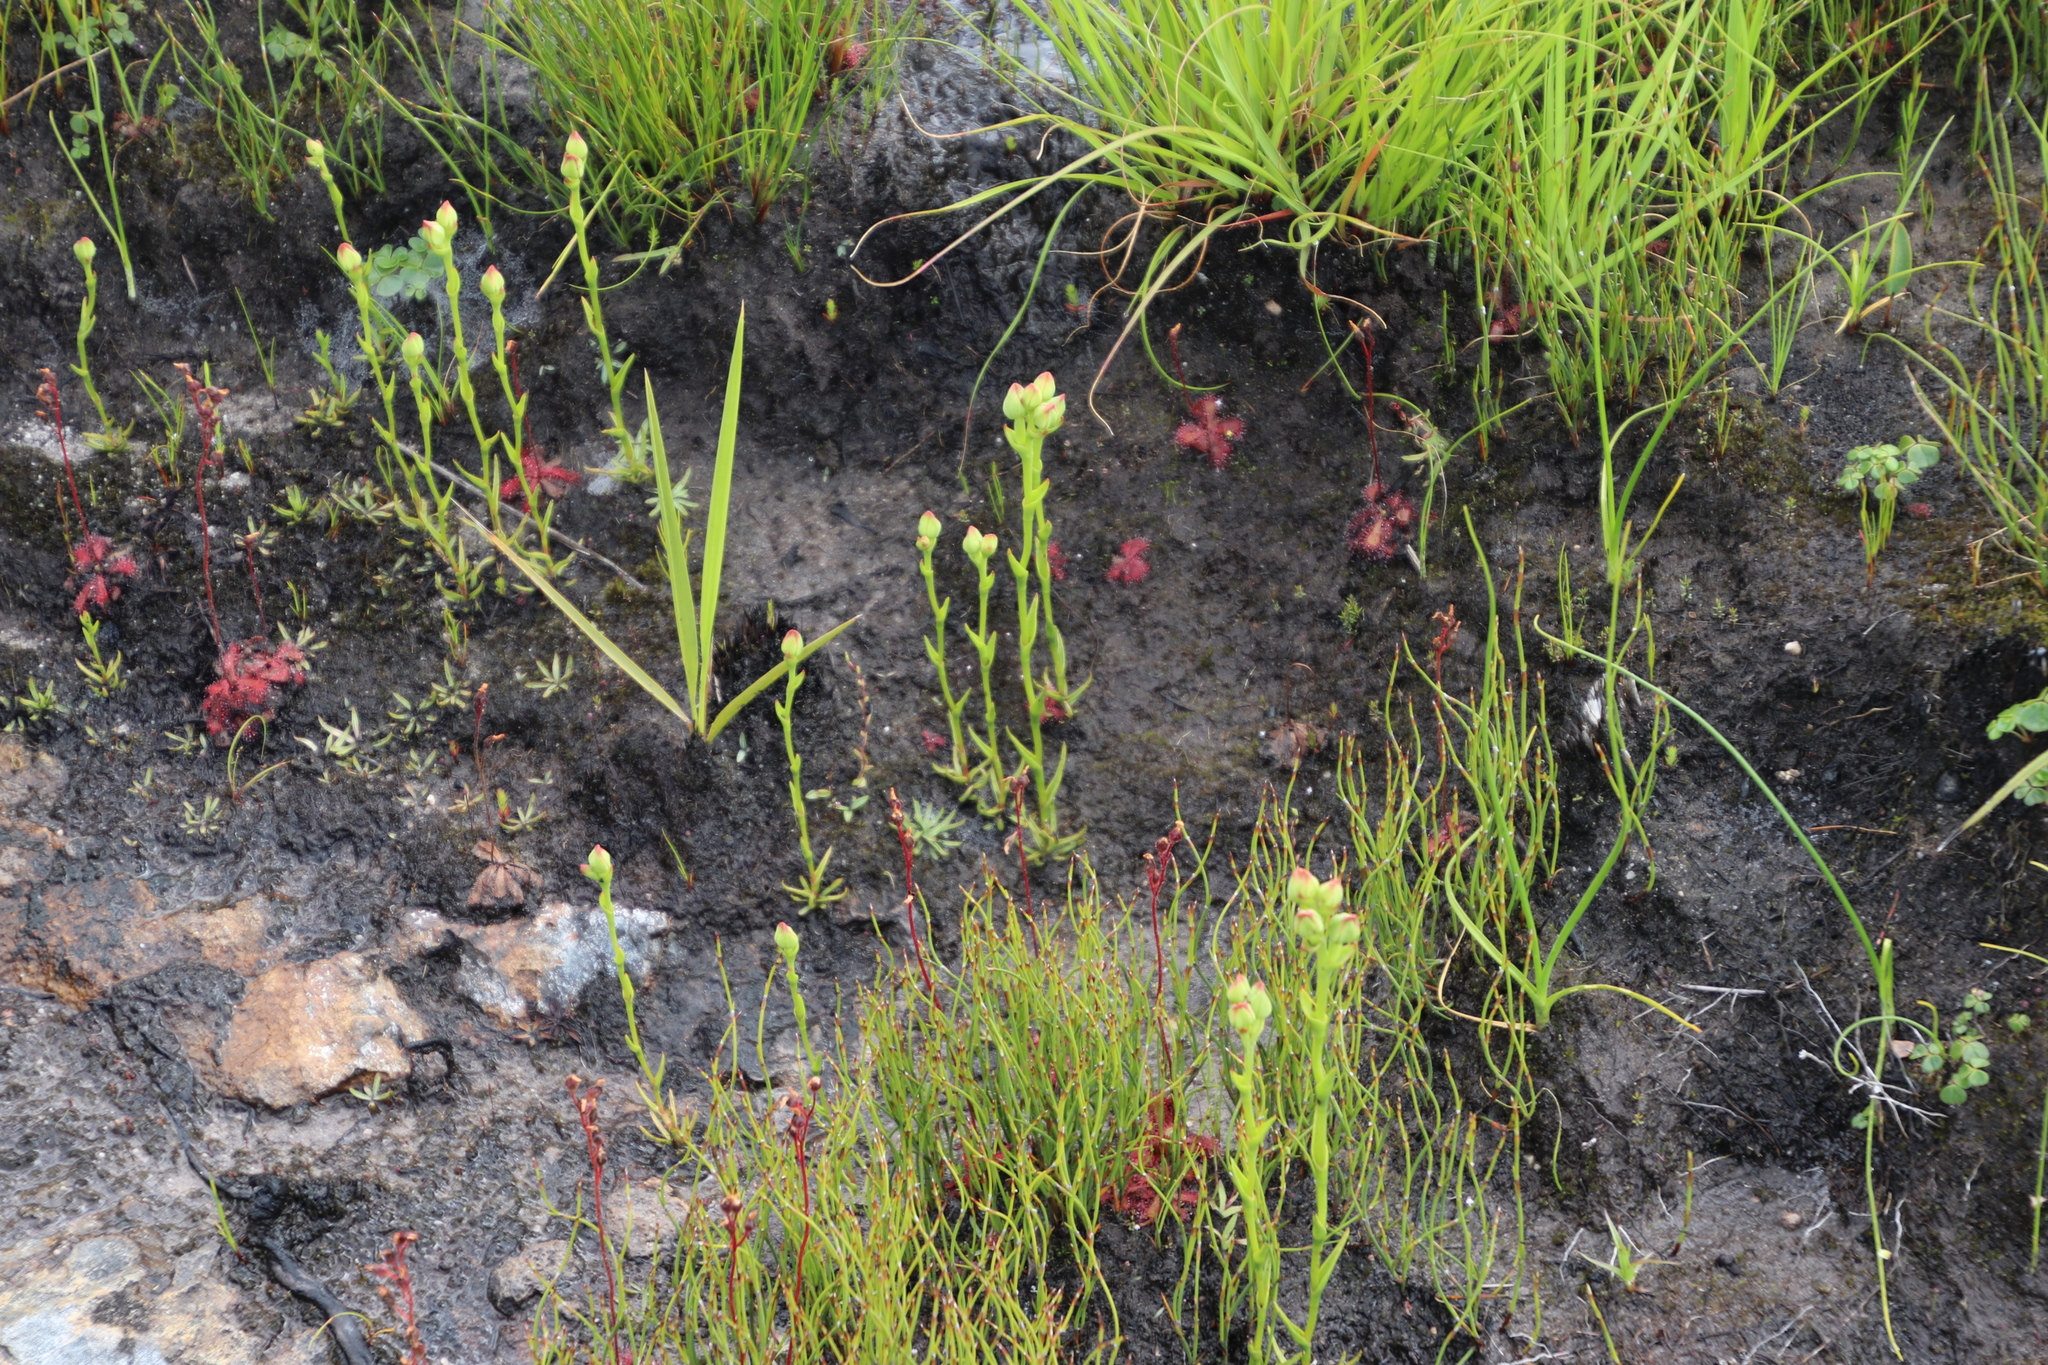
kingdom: Plantae
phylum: Tracheophyta
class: Liliopsida
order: Asparagales
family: Orchidaceae
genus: Ceratandra
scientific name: Ceratandra bicolor
